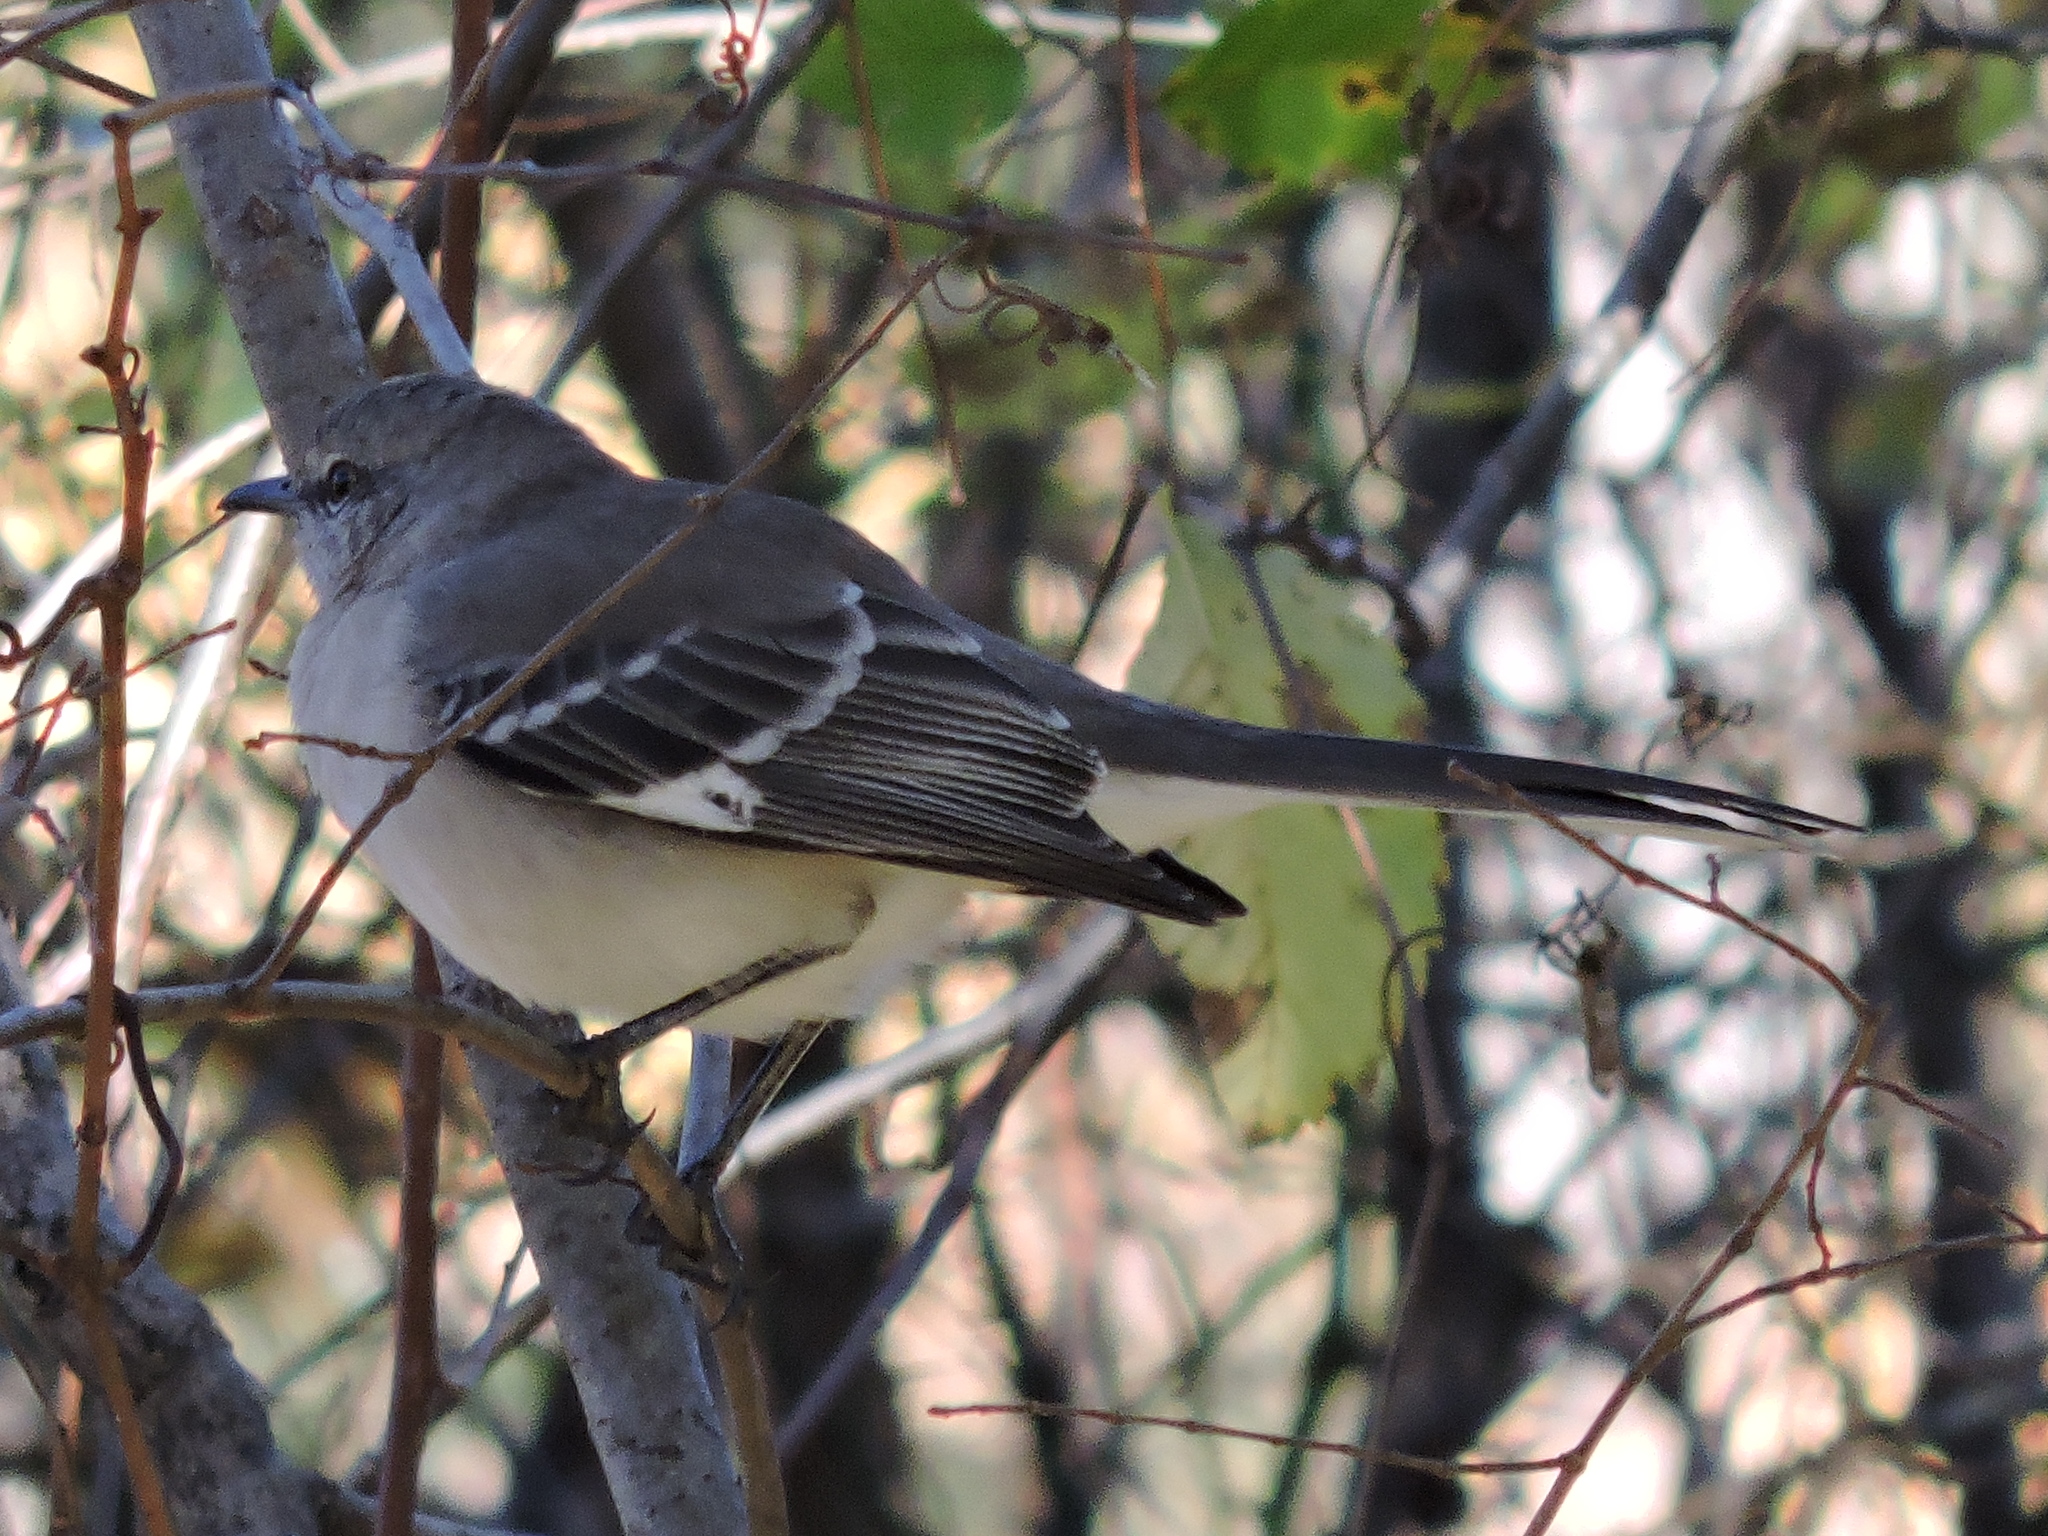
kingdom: Animalia
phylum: Chordata
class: Aves
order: Passeriformes
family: Mimidae
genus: Mimus
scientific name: Mimus polyglottos
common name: Northern mockingbird
